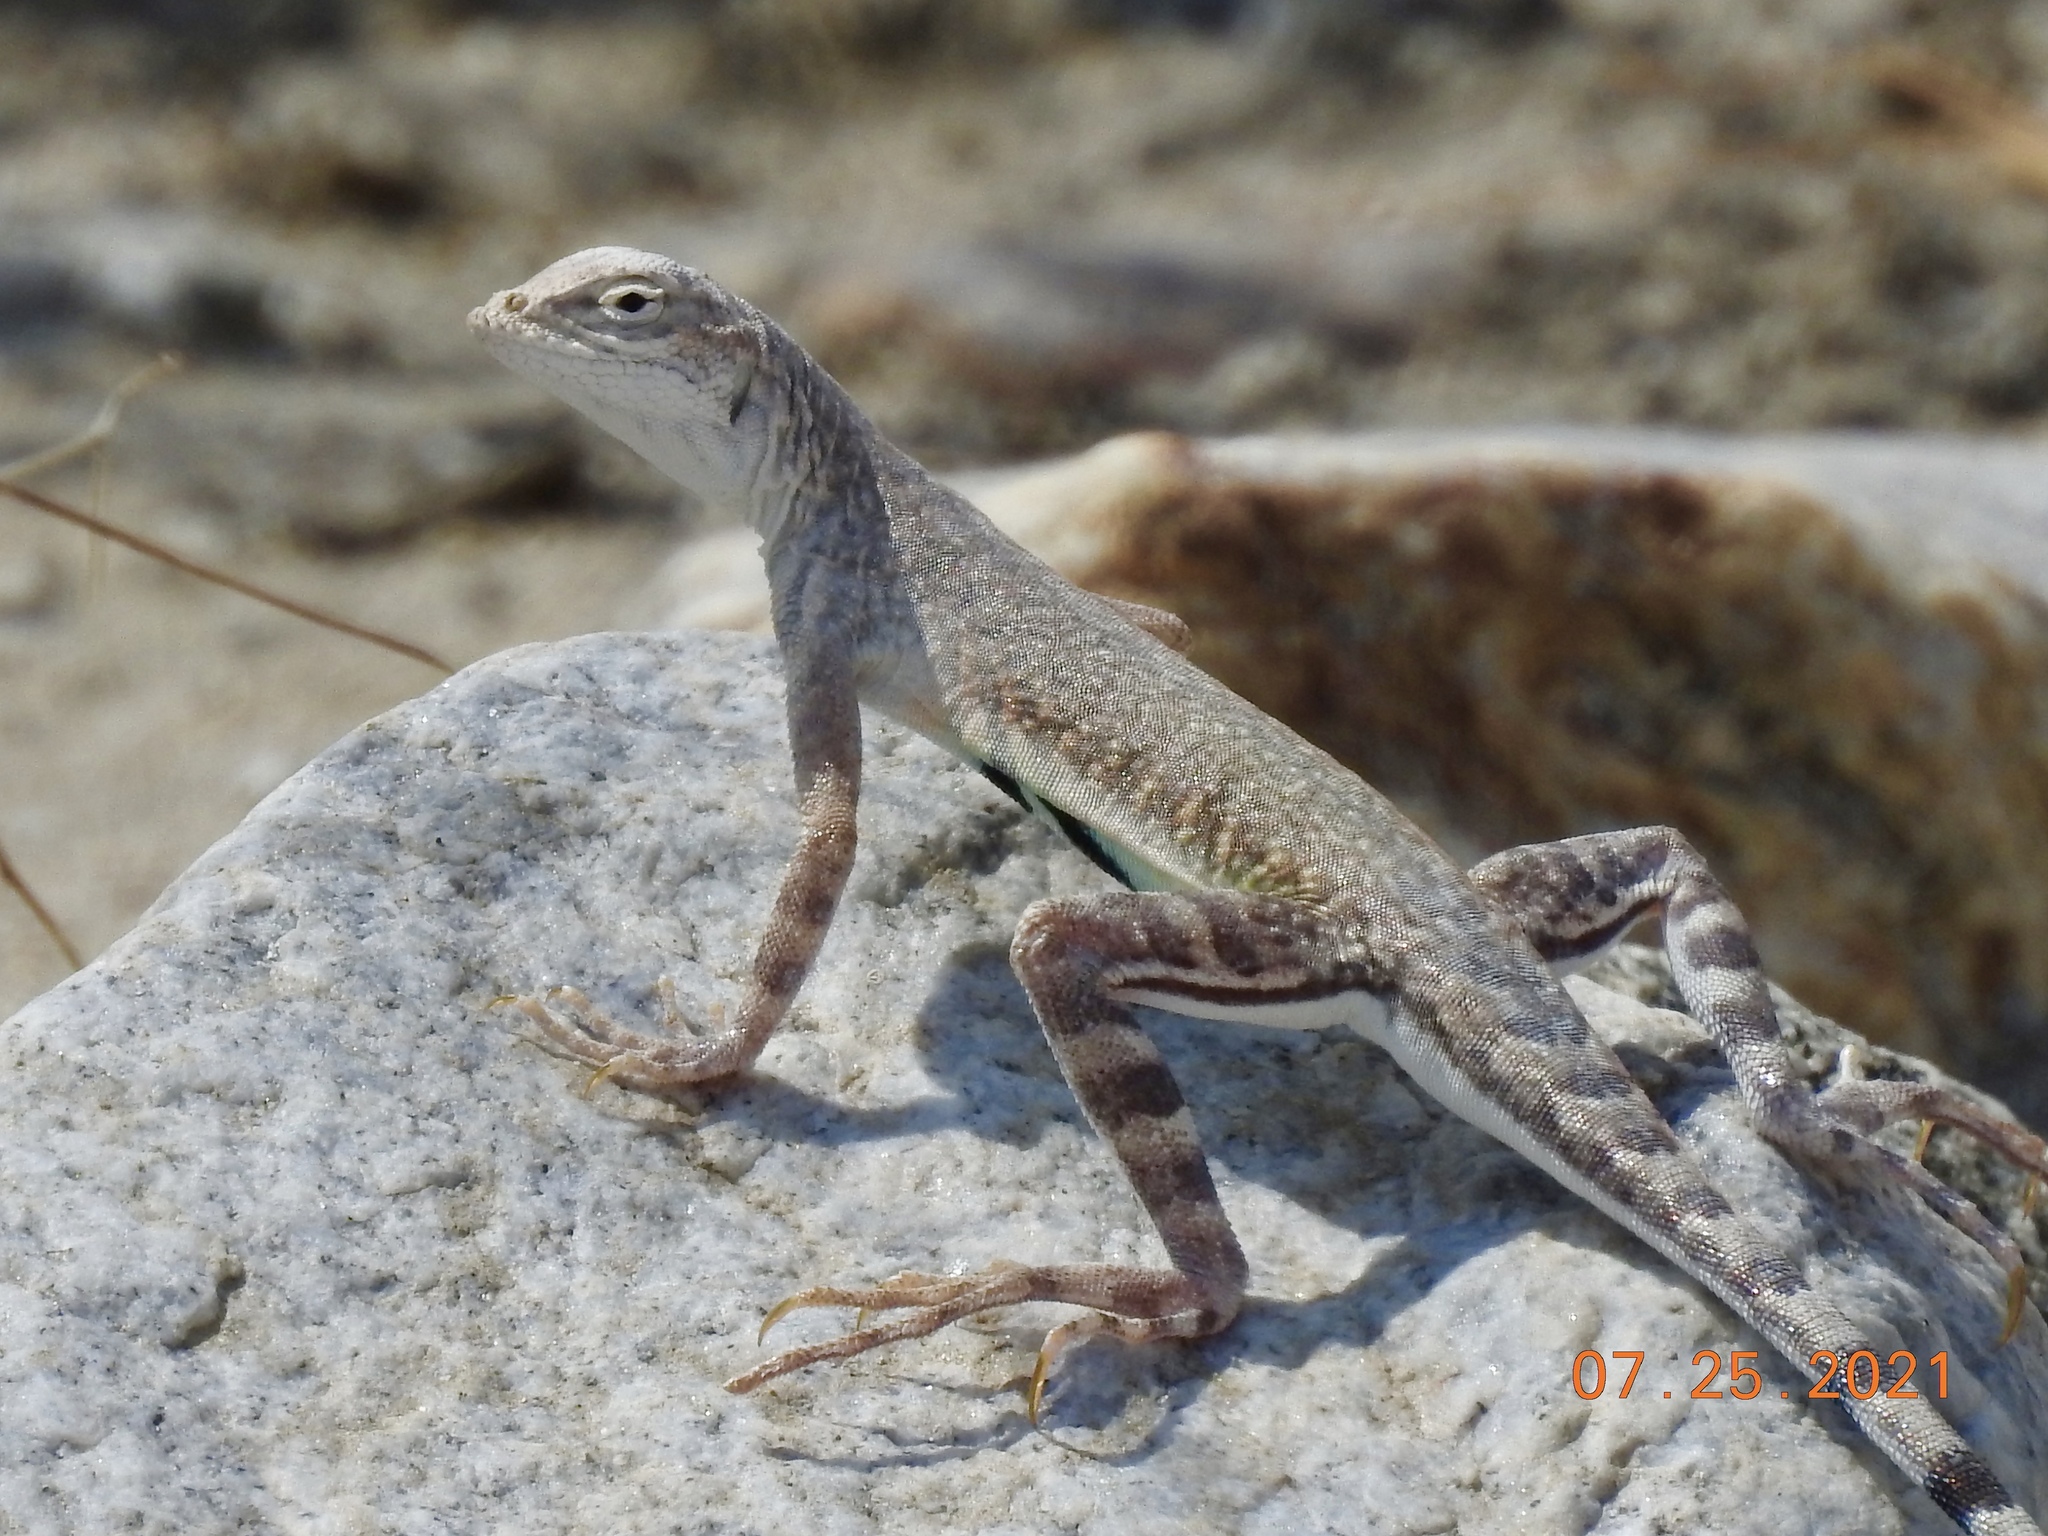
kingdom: Animalia
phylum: Chordata
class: Squamata
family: Phrynosomatidae
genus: Callisaurus
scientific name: Callisaurus draconoides
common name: Zebra-tailed lizard
